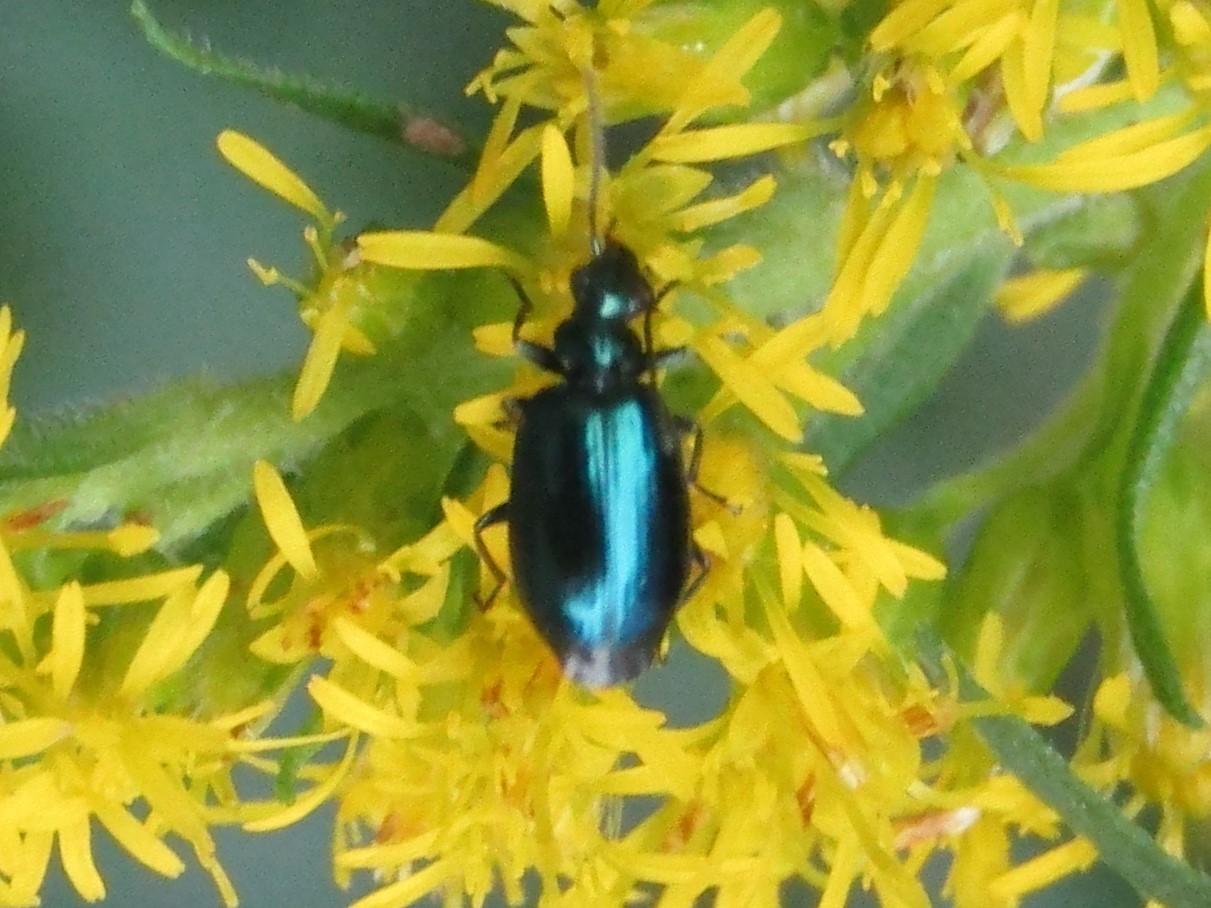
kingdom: Animalia
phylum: Arthropoda
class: Insecta
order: Coleoptera
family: Carabidae
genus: Lebia
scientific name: Lebia viridis
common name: Flower lebia beetle
